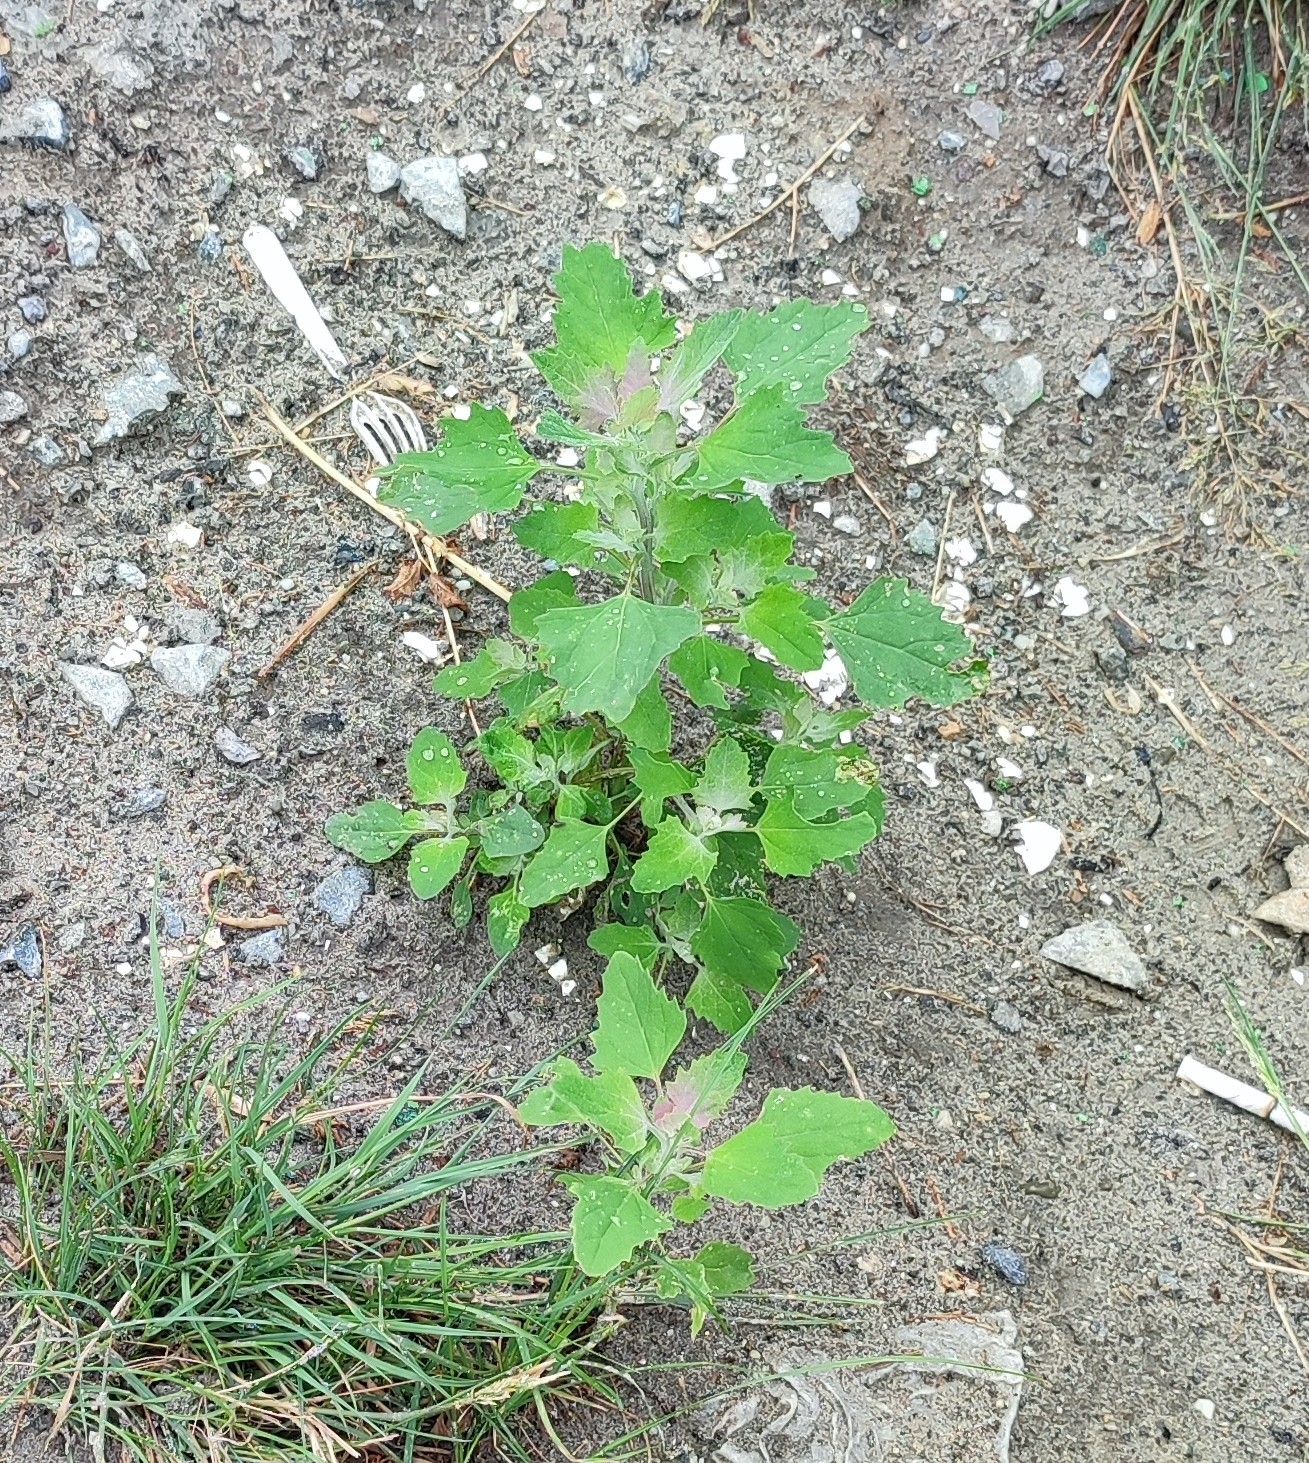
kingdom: Plantae
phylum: Tracheophyta
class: Magnoliopsida
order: Caryophyllales
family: Amaranthaceae
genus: Chenopodium
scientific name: Chenopodium album
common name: Fat-hen
